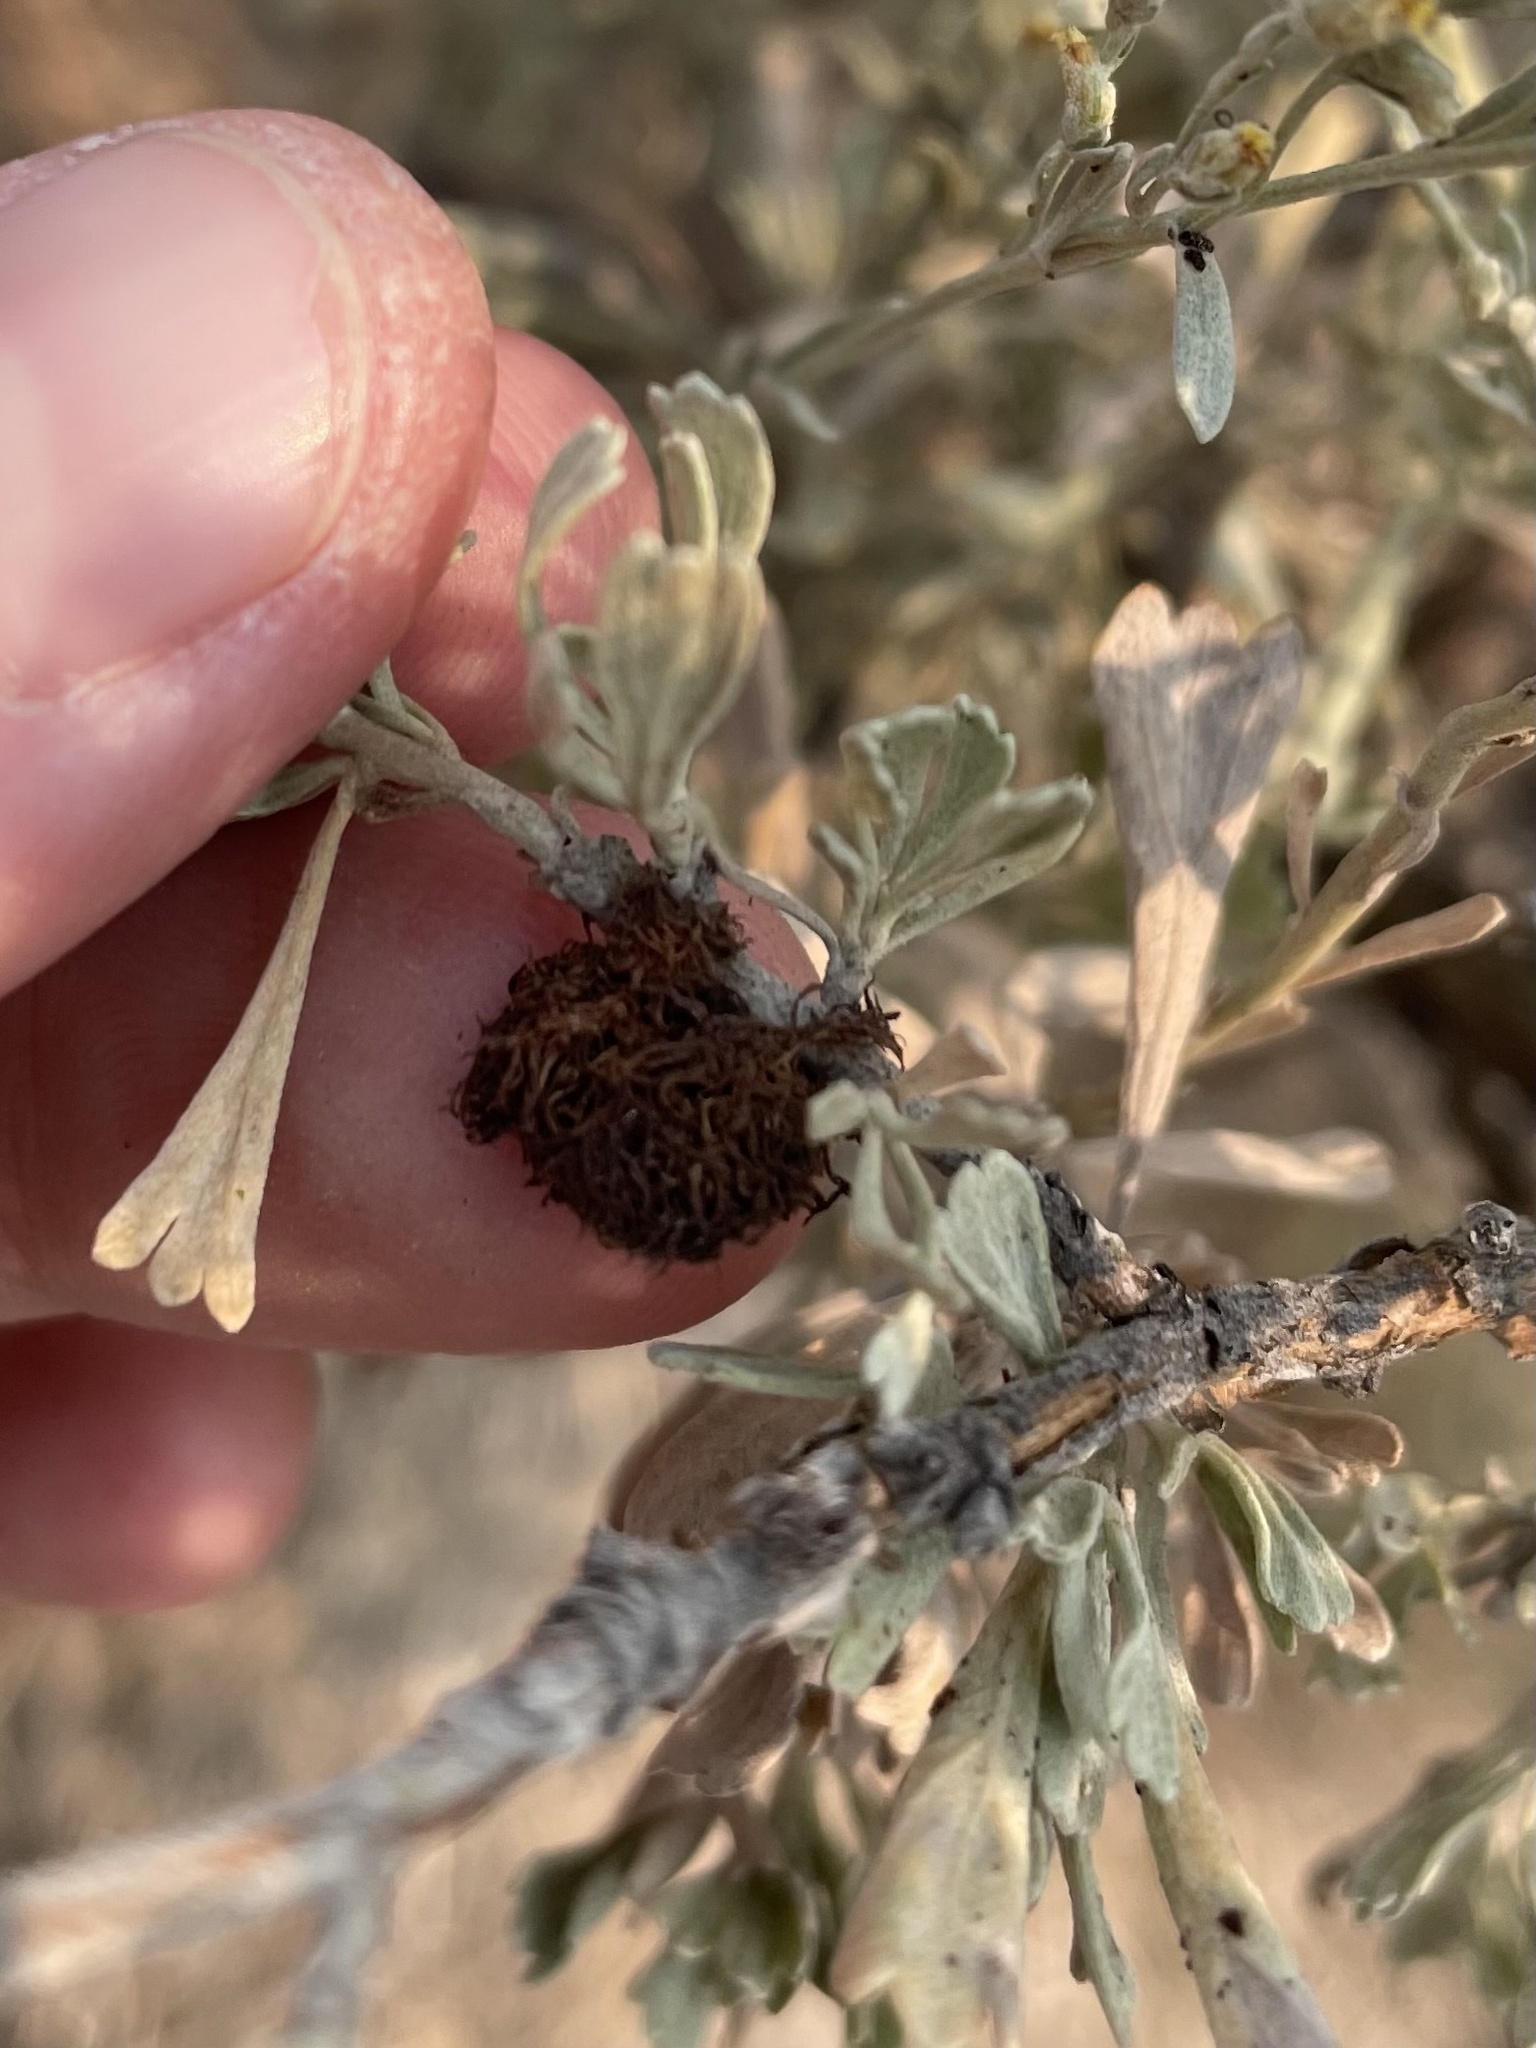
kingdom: Animalia
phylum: Arthropoda
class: Insecta
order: Diptera
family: Cecidomyiidae
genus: Rhopalomyia
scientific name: Rhopalomyia medusa
